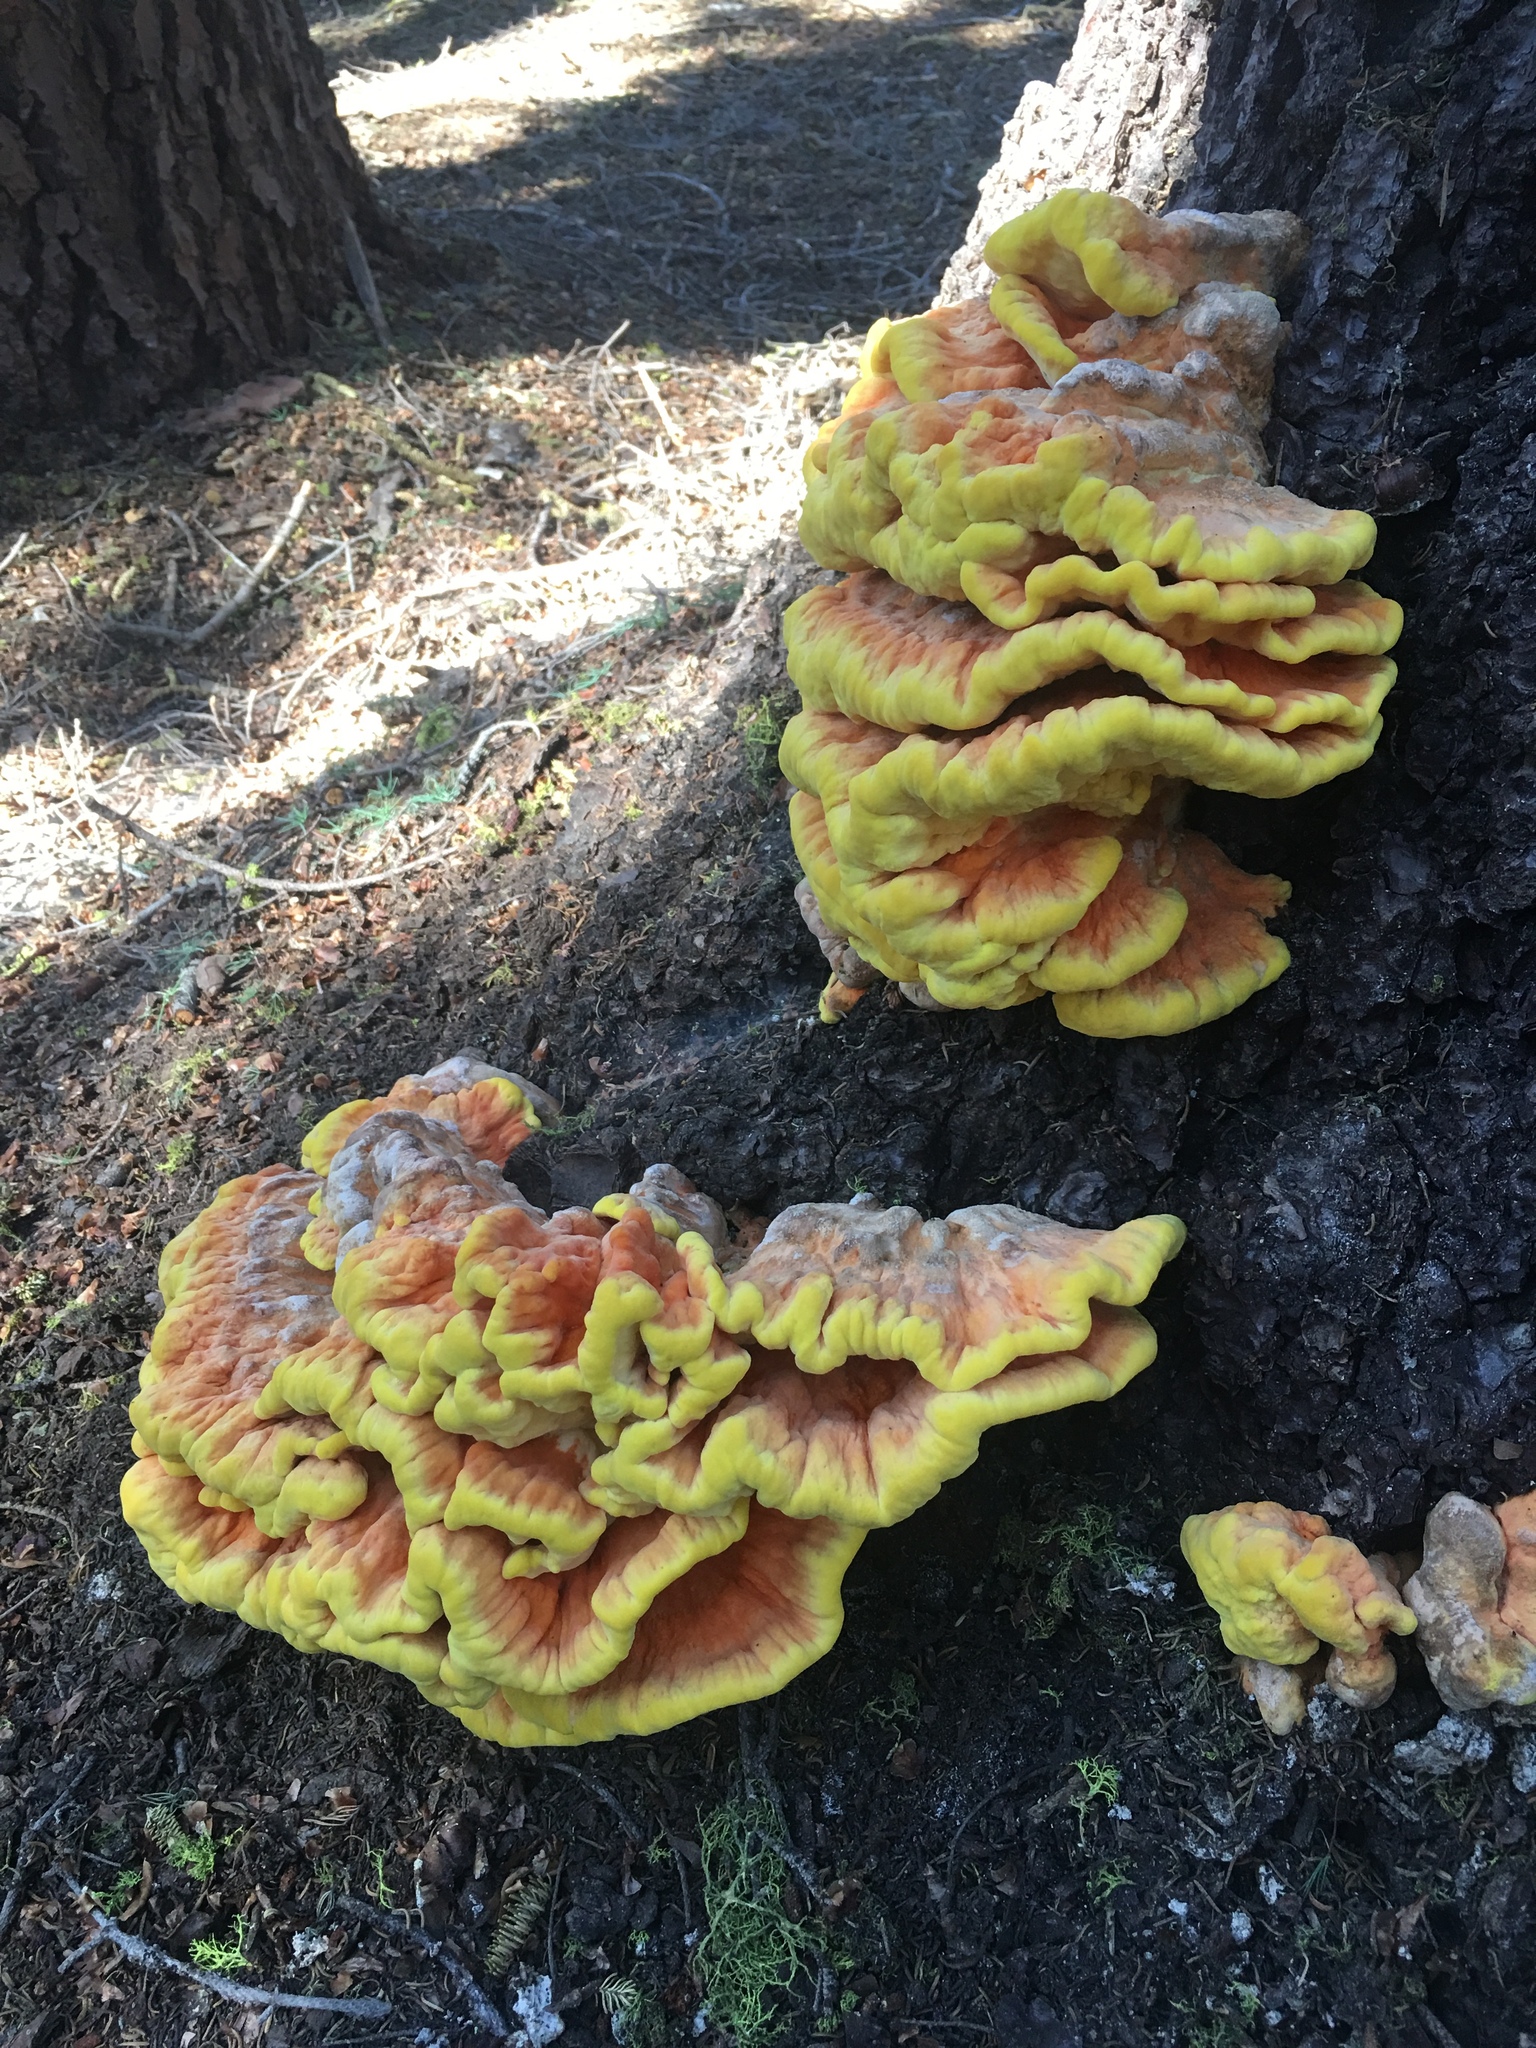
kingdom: Fungi
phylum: Basidiomycota
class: Agaricomycetes
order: Polyporales
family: Laetiporaceae
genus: Laetiporus
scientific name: Laetiporus conifericola
